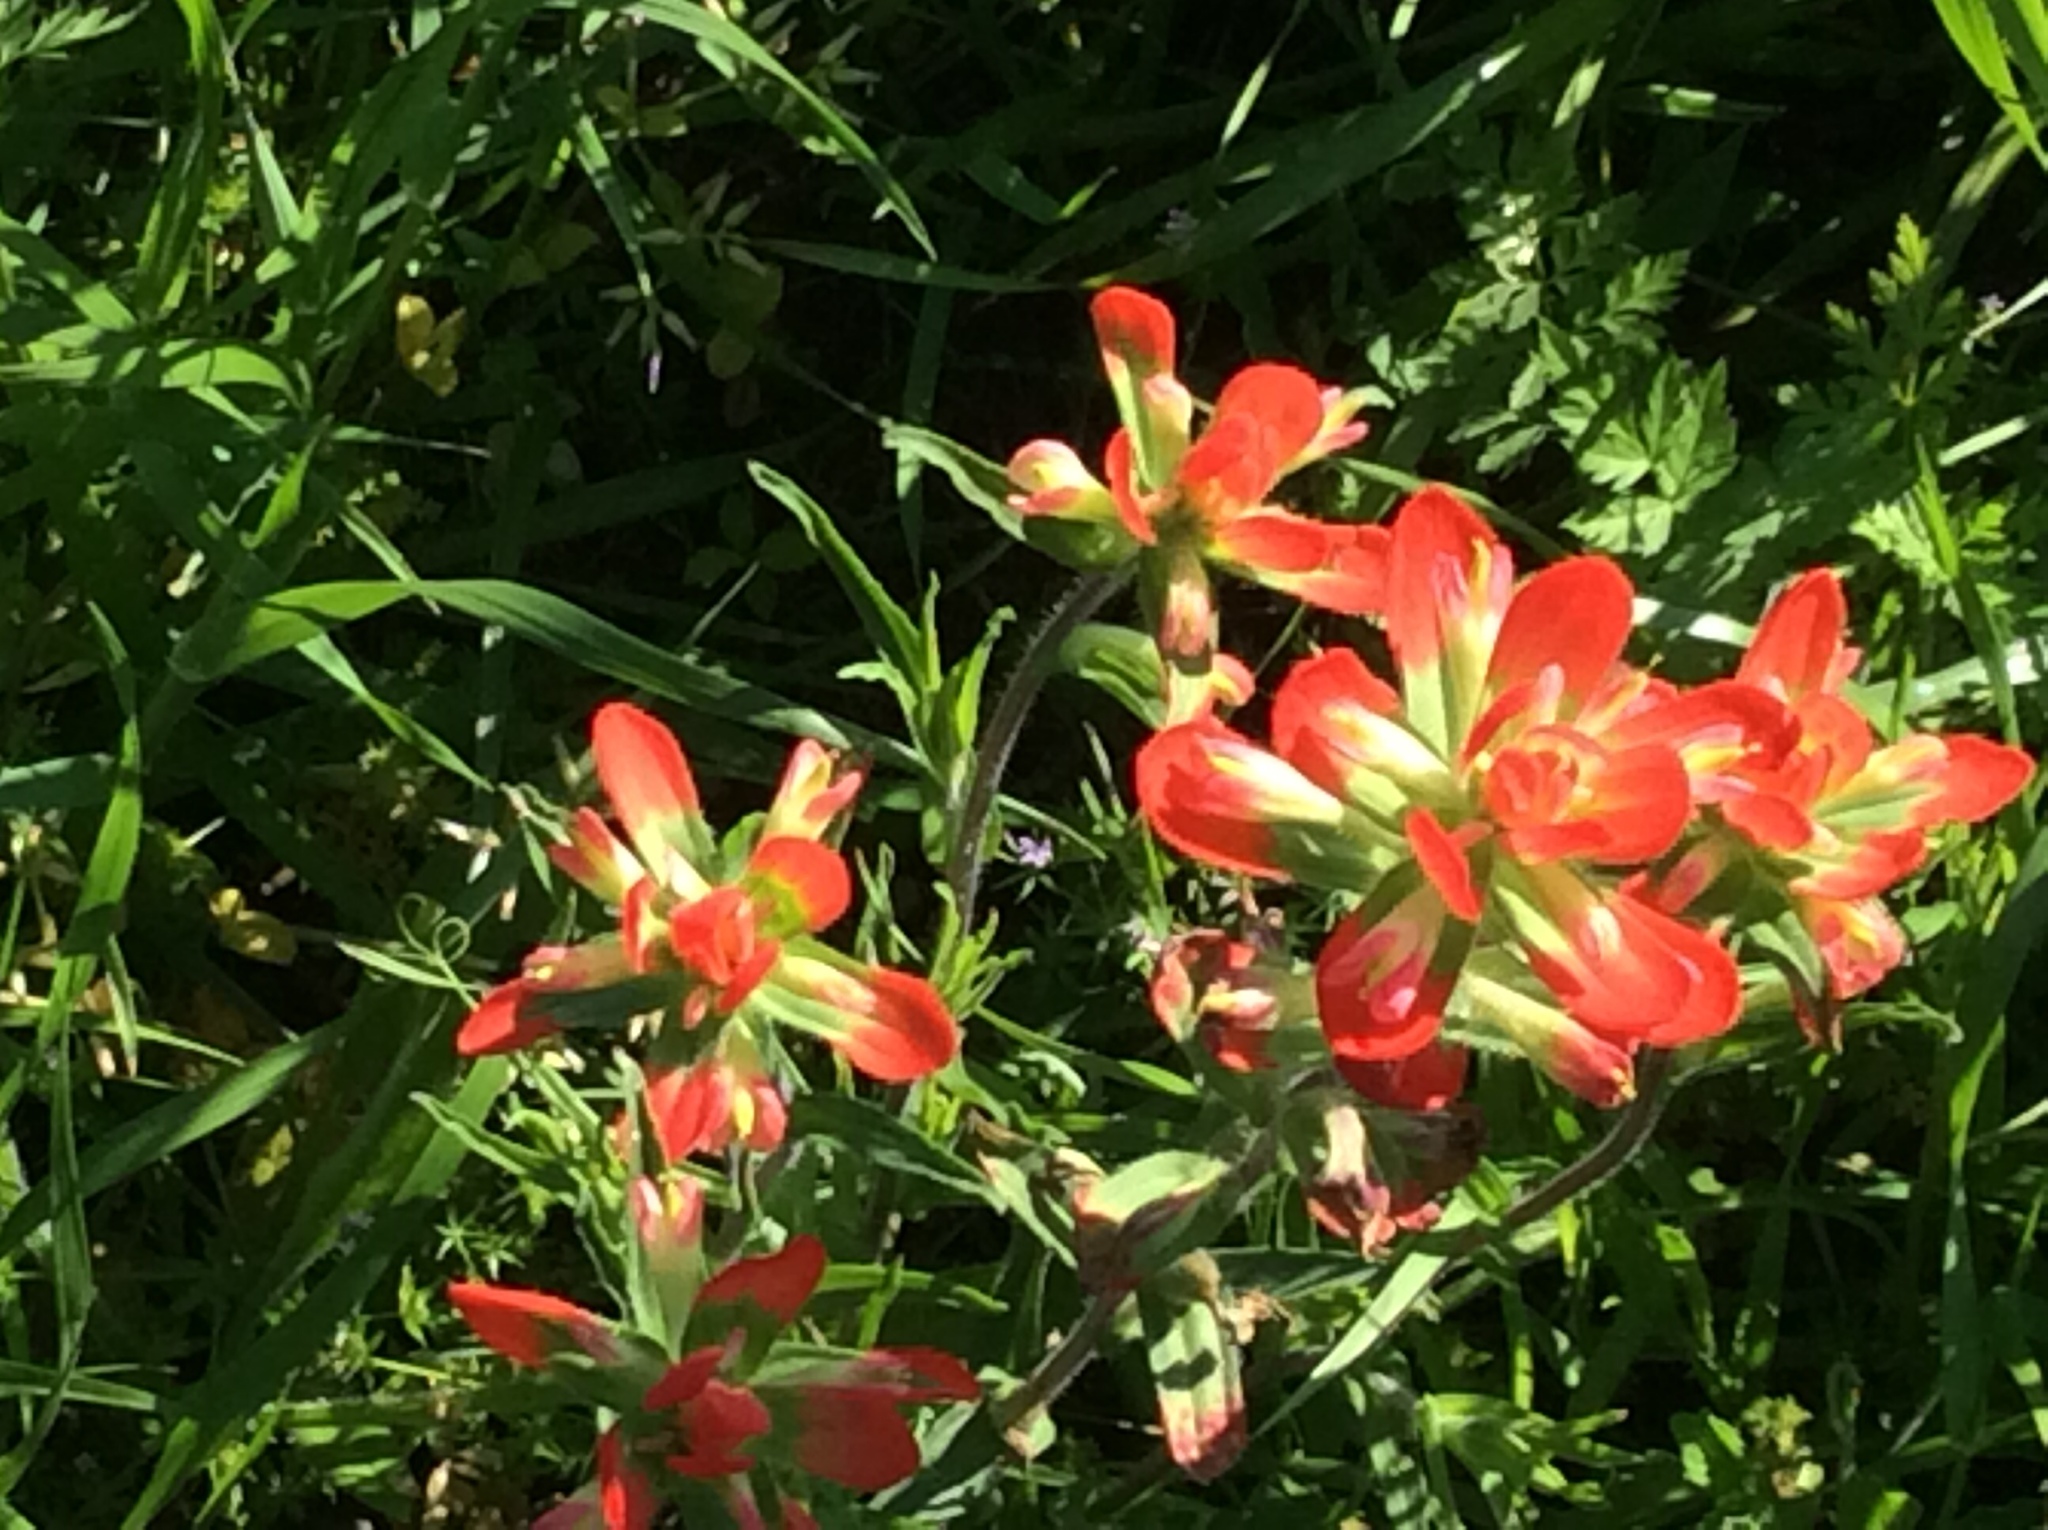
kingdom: Plantae
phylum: Tracheophyta
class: Magnoliopsida
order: Lamiales
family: Orobanchaceae
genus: Castilleja
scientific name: Castilleja indivisa
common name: Texas paintbrush
